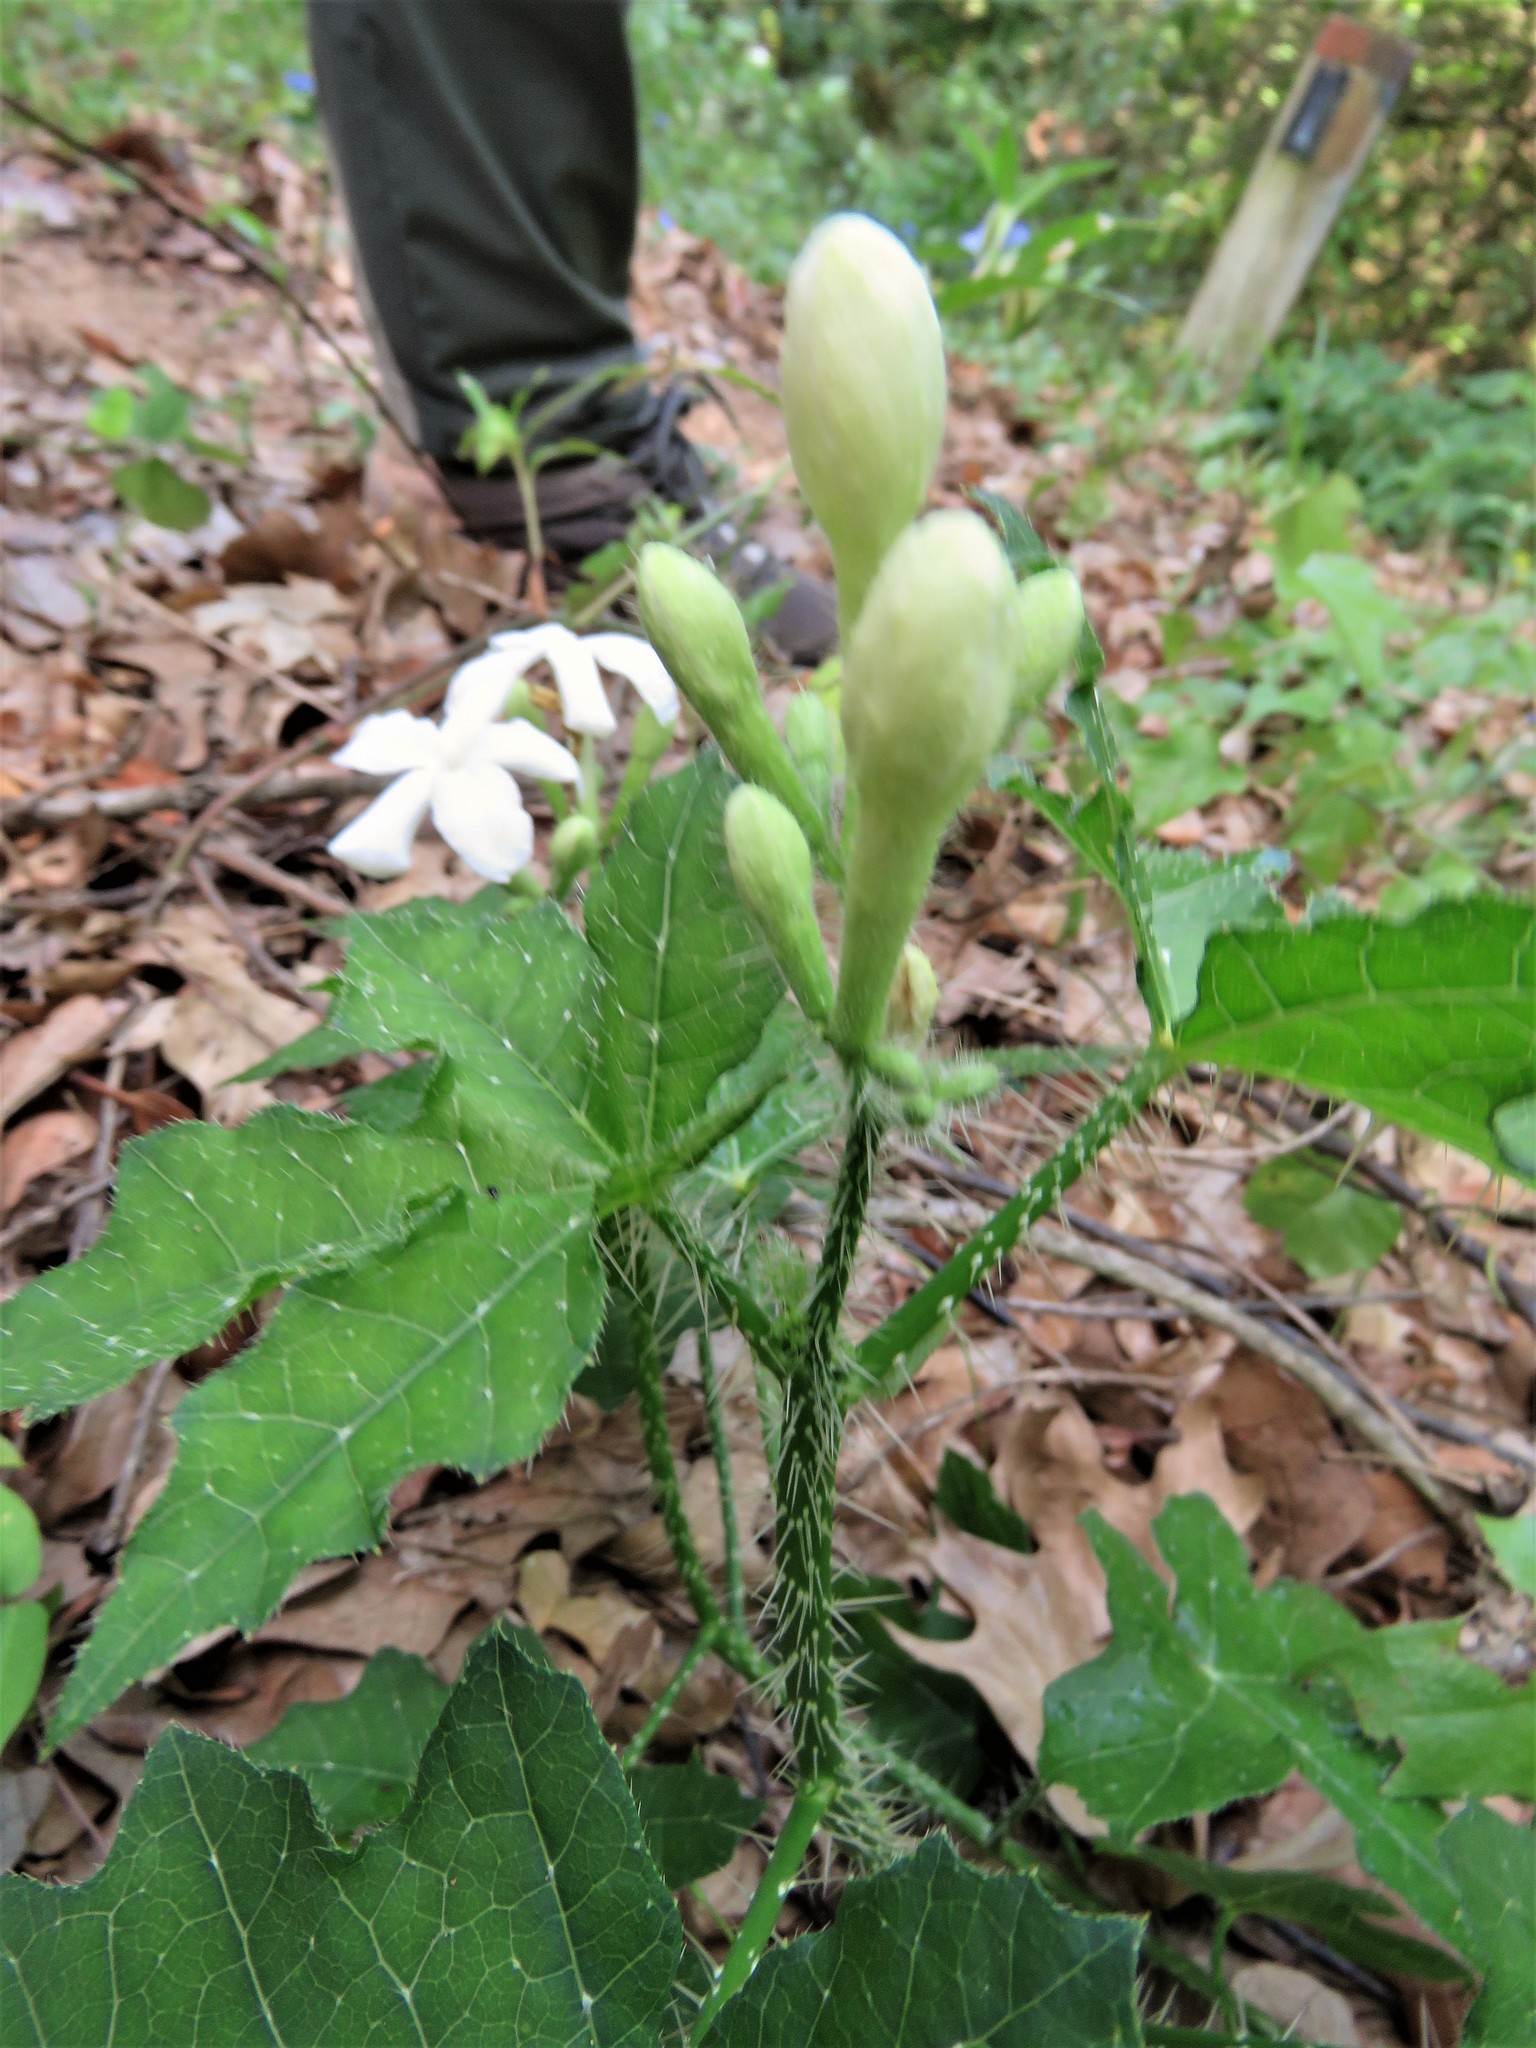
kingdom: Plantae
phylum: Tracheophyta
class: Magnoliopsida
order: Malpighiales
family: Euphorbiaceae
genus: Cnidoscolus
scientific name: Cnidoscolus texanus
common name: Texas bull-nettle
